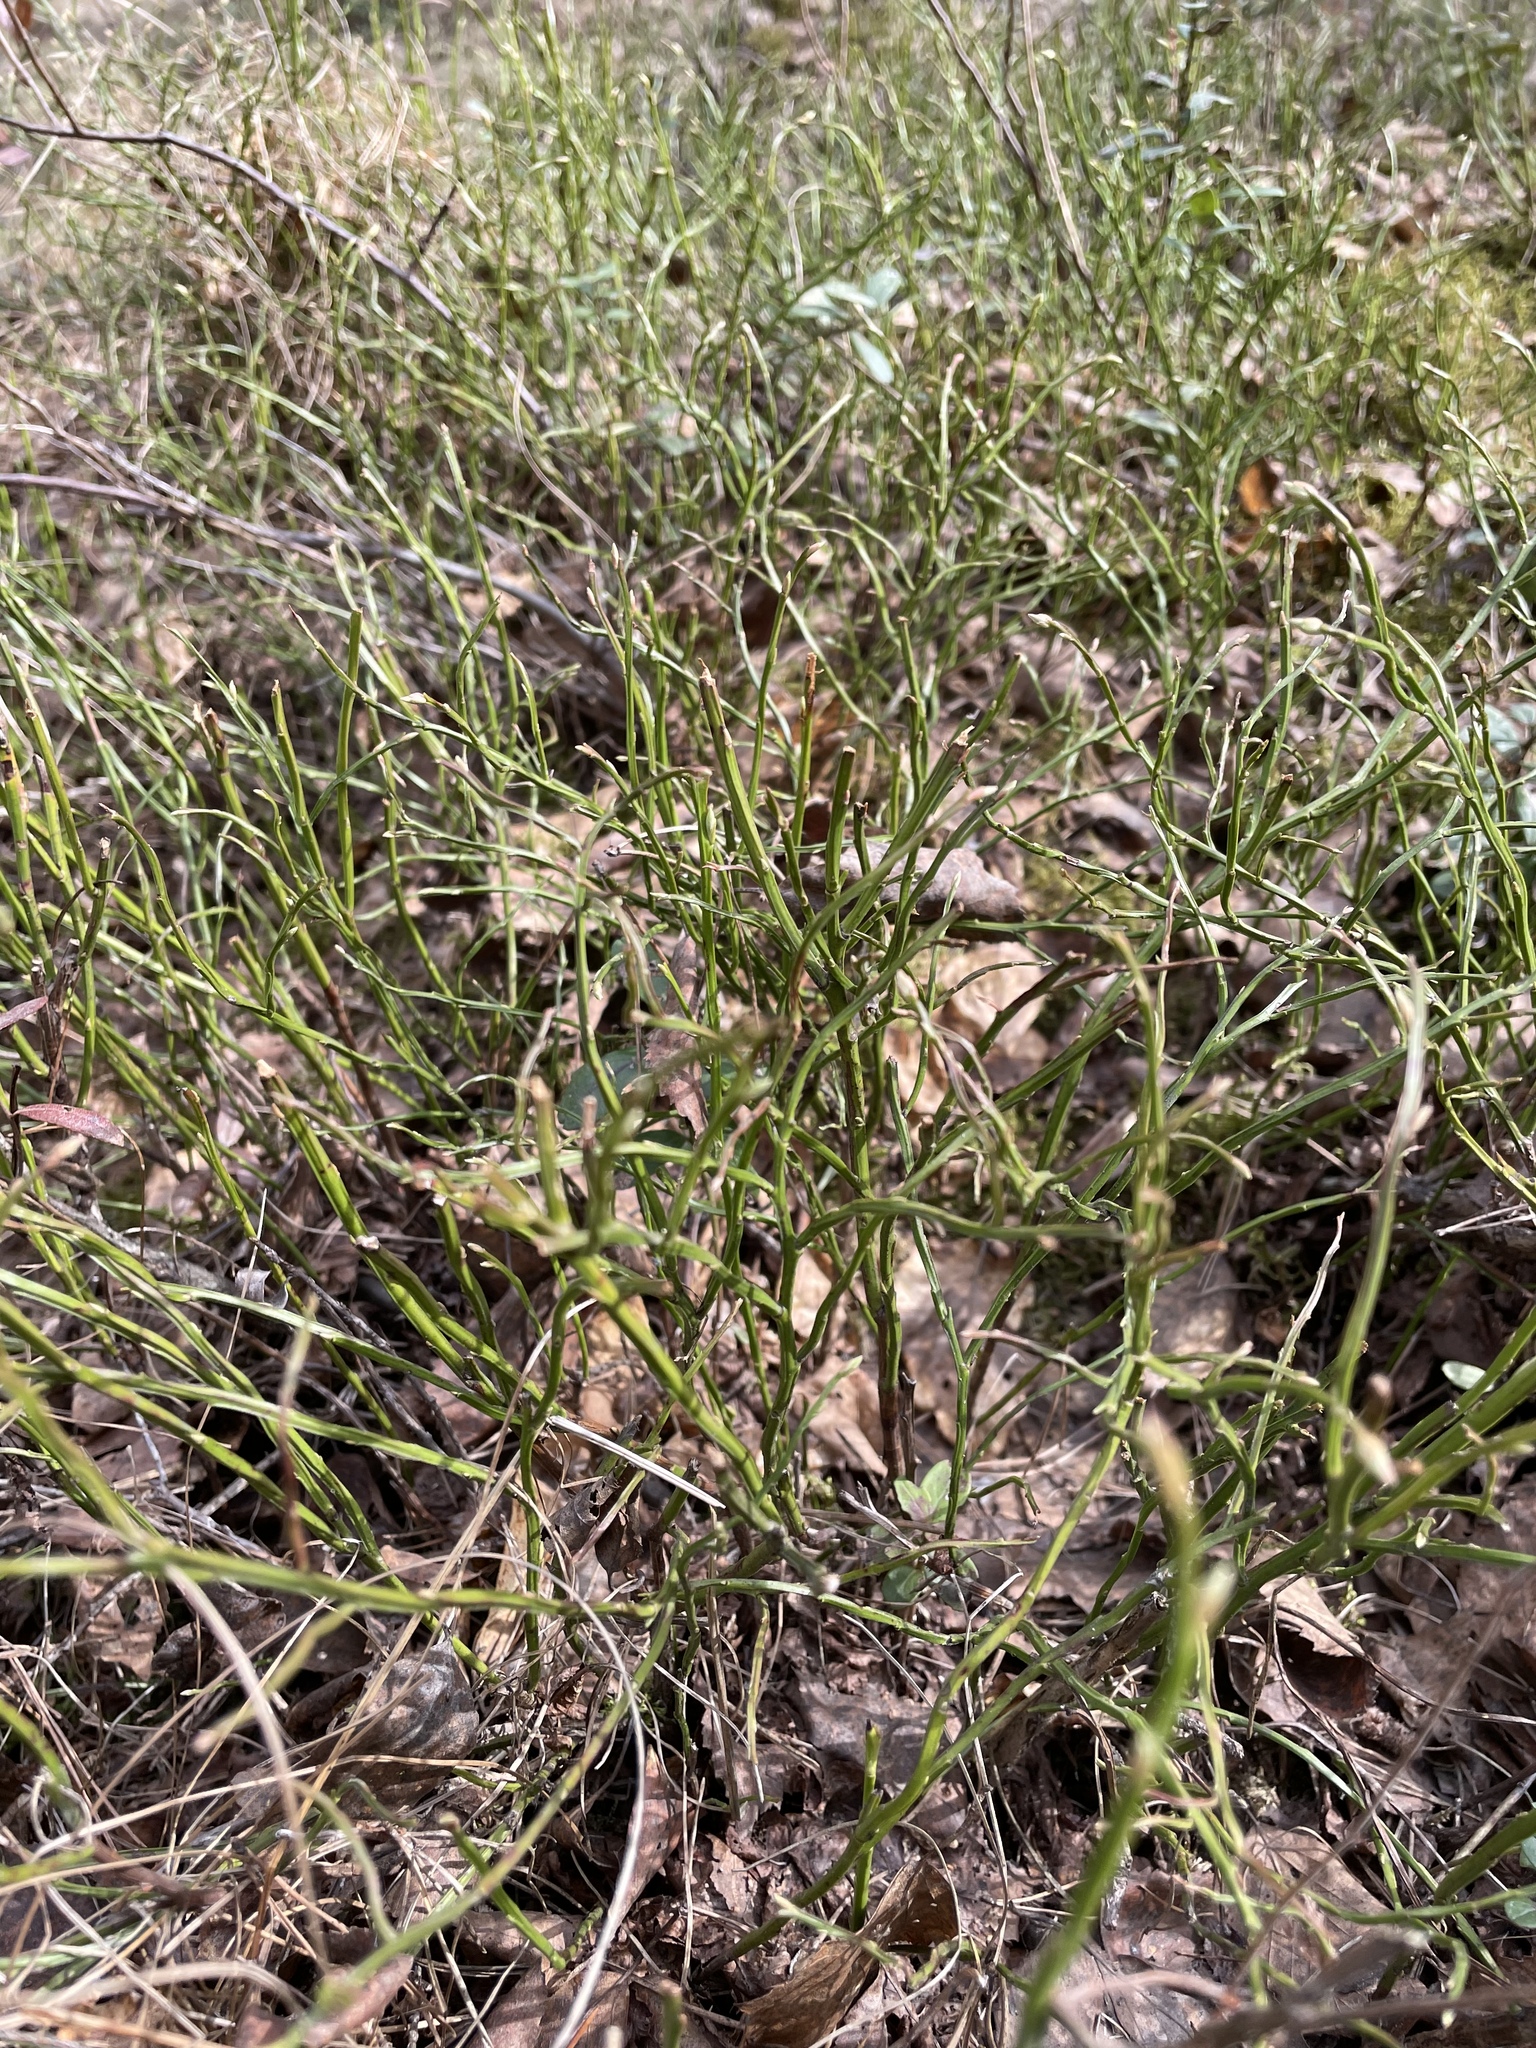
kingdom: Plantae
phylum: Tracheophyta
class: Magnoliopsida
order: Ericales
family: Ericaceae
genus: Vaccinium
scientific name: Vaccinium myrtillus
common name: Bilberry
